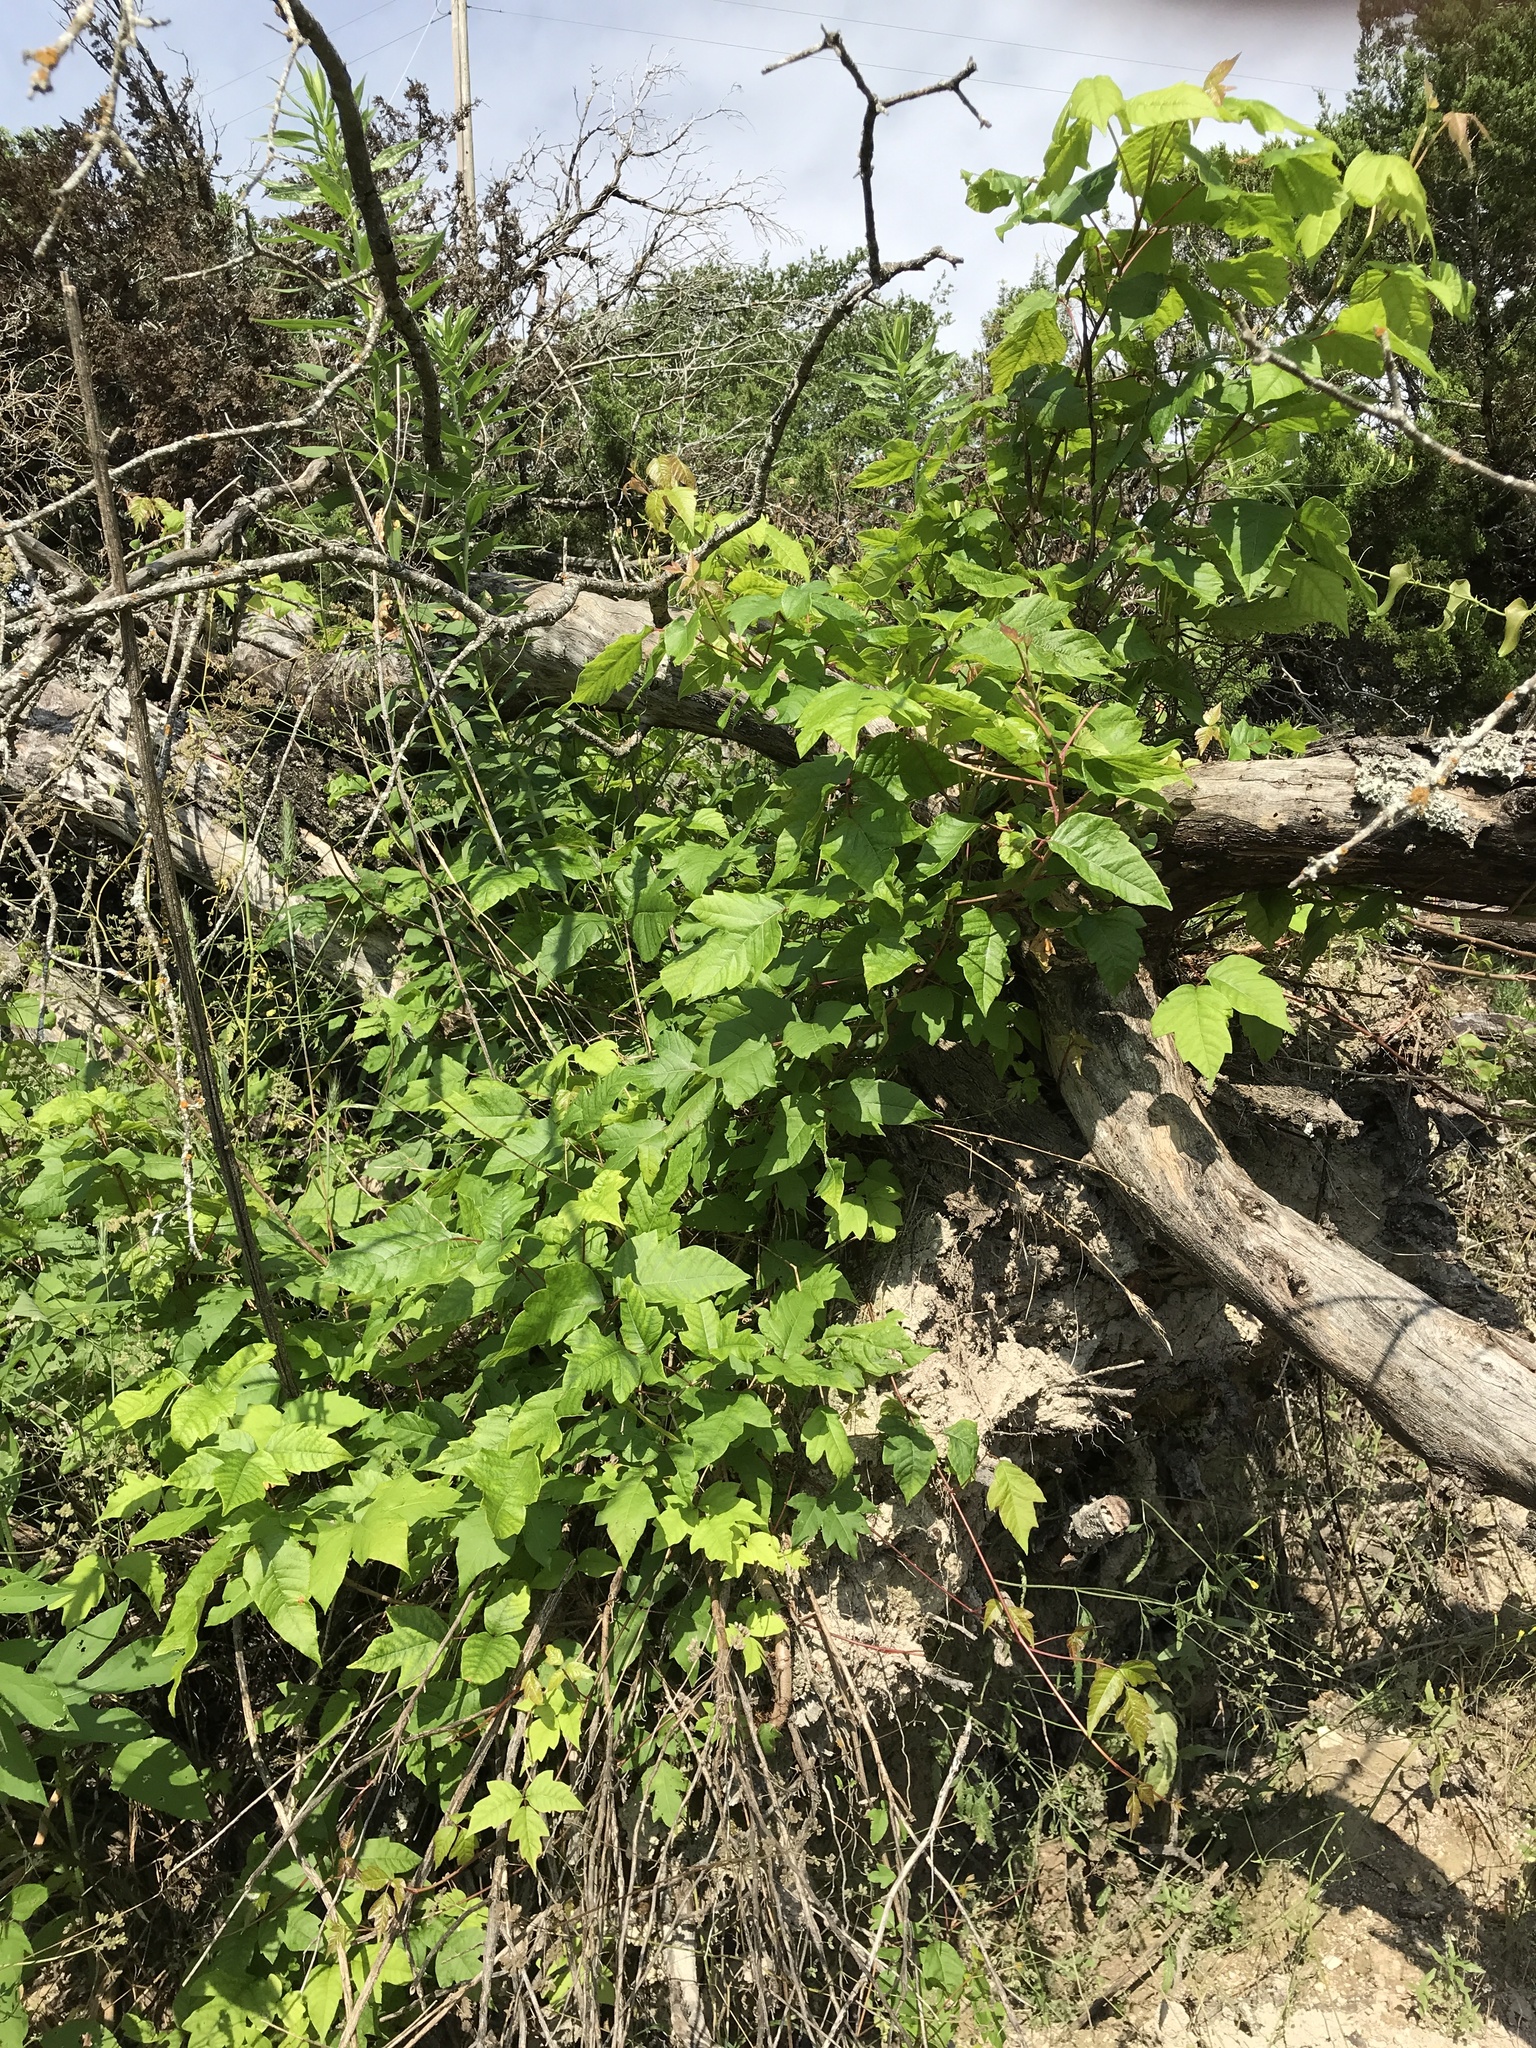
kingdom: Plantae
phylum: Tracheophyta
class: Magnoliopsida
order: Sapindales
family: Anacardiaceae
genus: Toxicodendron
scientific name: Toxicodendron radicans
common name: Poison ivy
